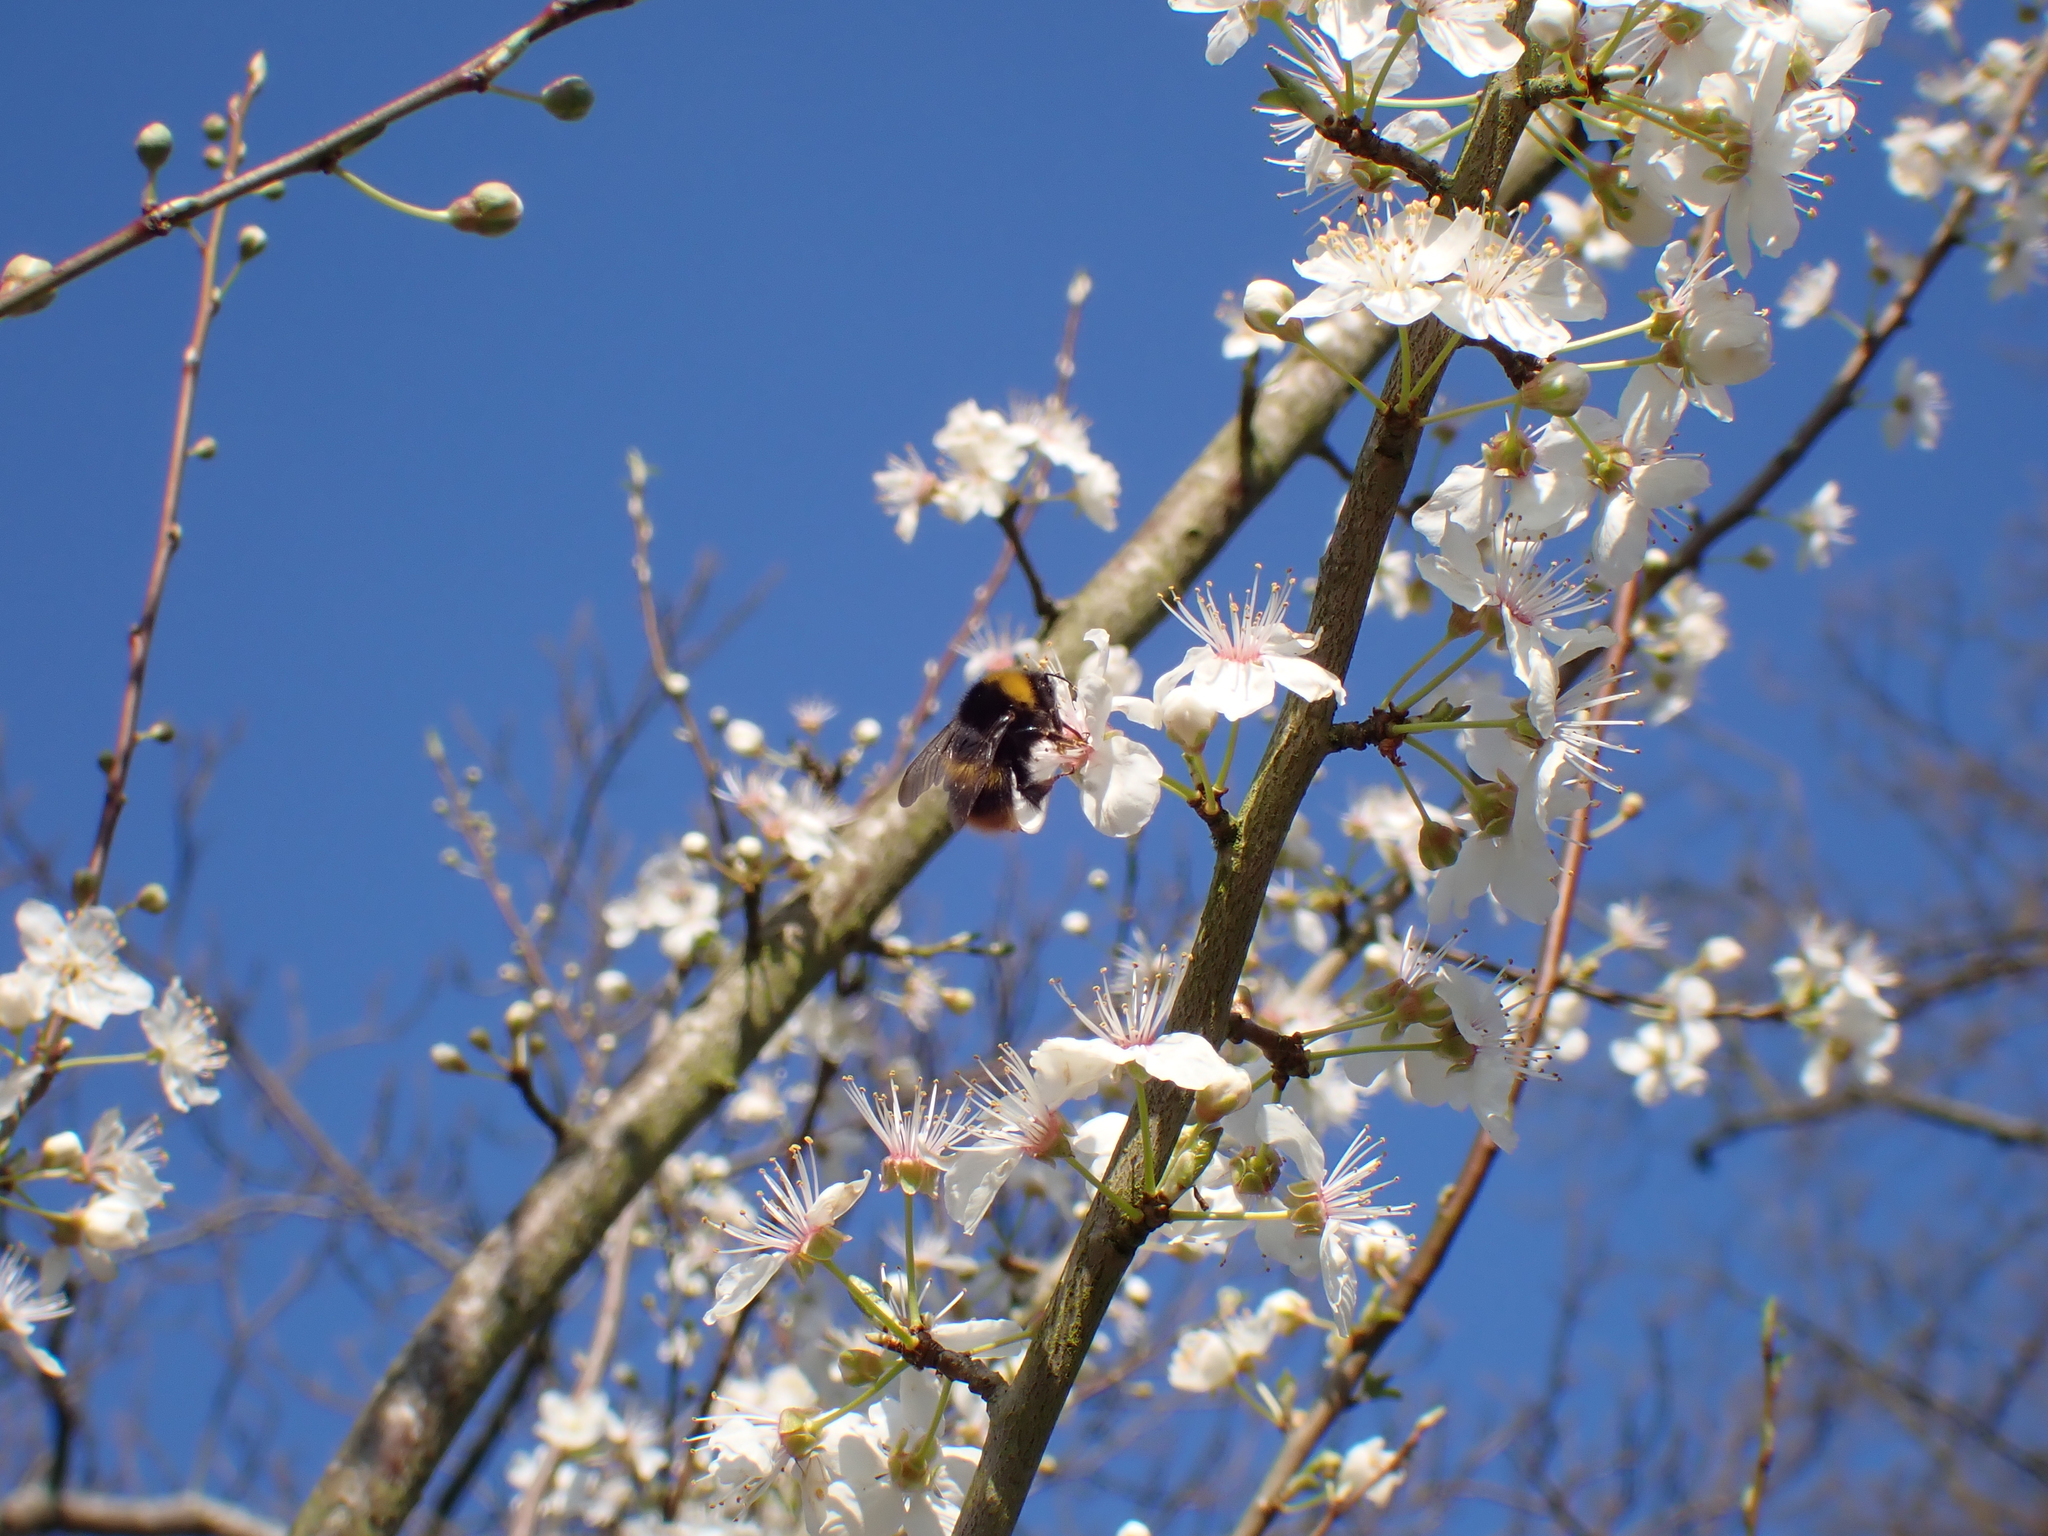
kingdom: Animalia
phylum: Arthropoda
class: Insecta
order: Hymenoptera
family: Apidae
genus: Bombus
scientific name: Bombus pratorum
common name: Early humble-bee
